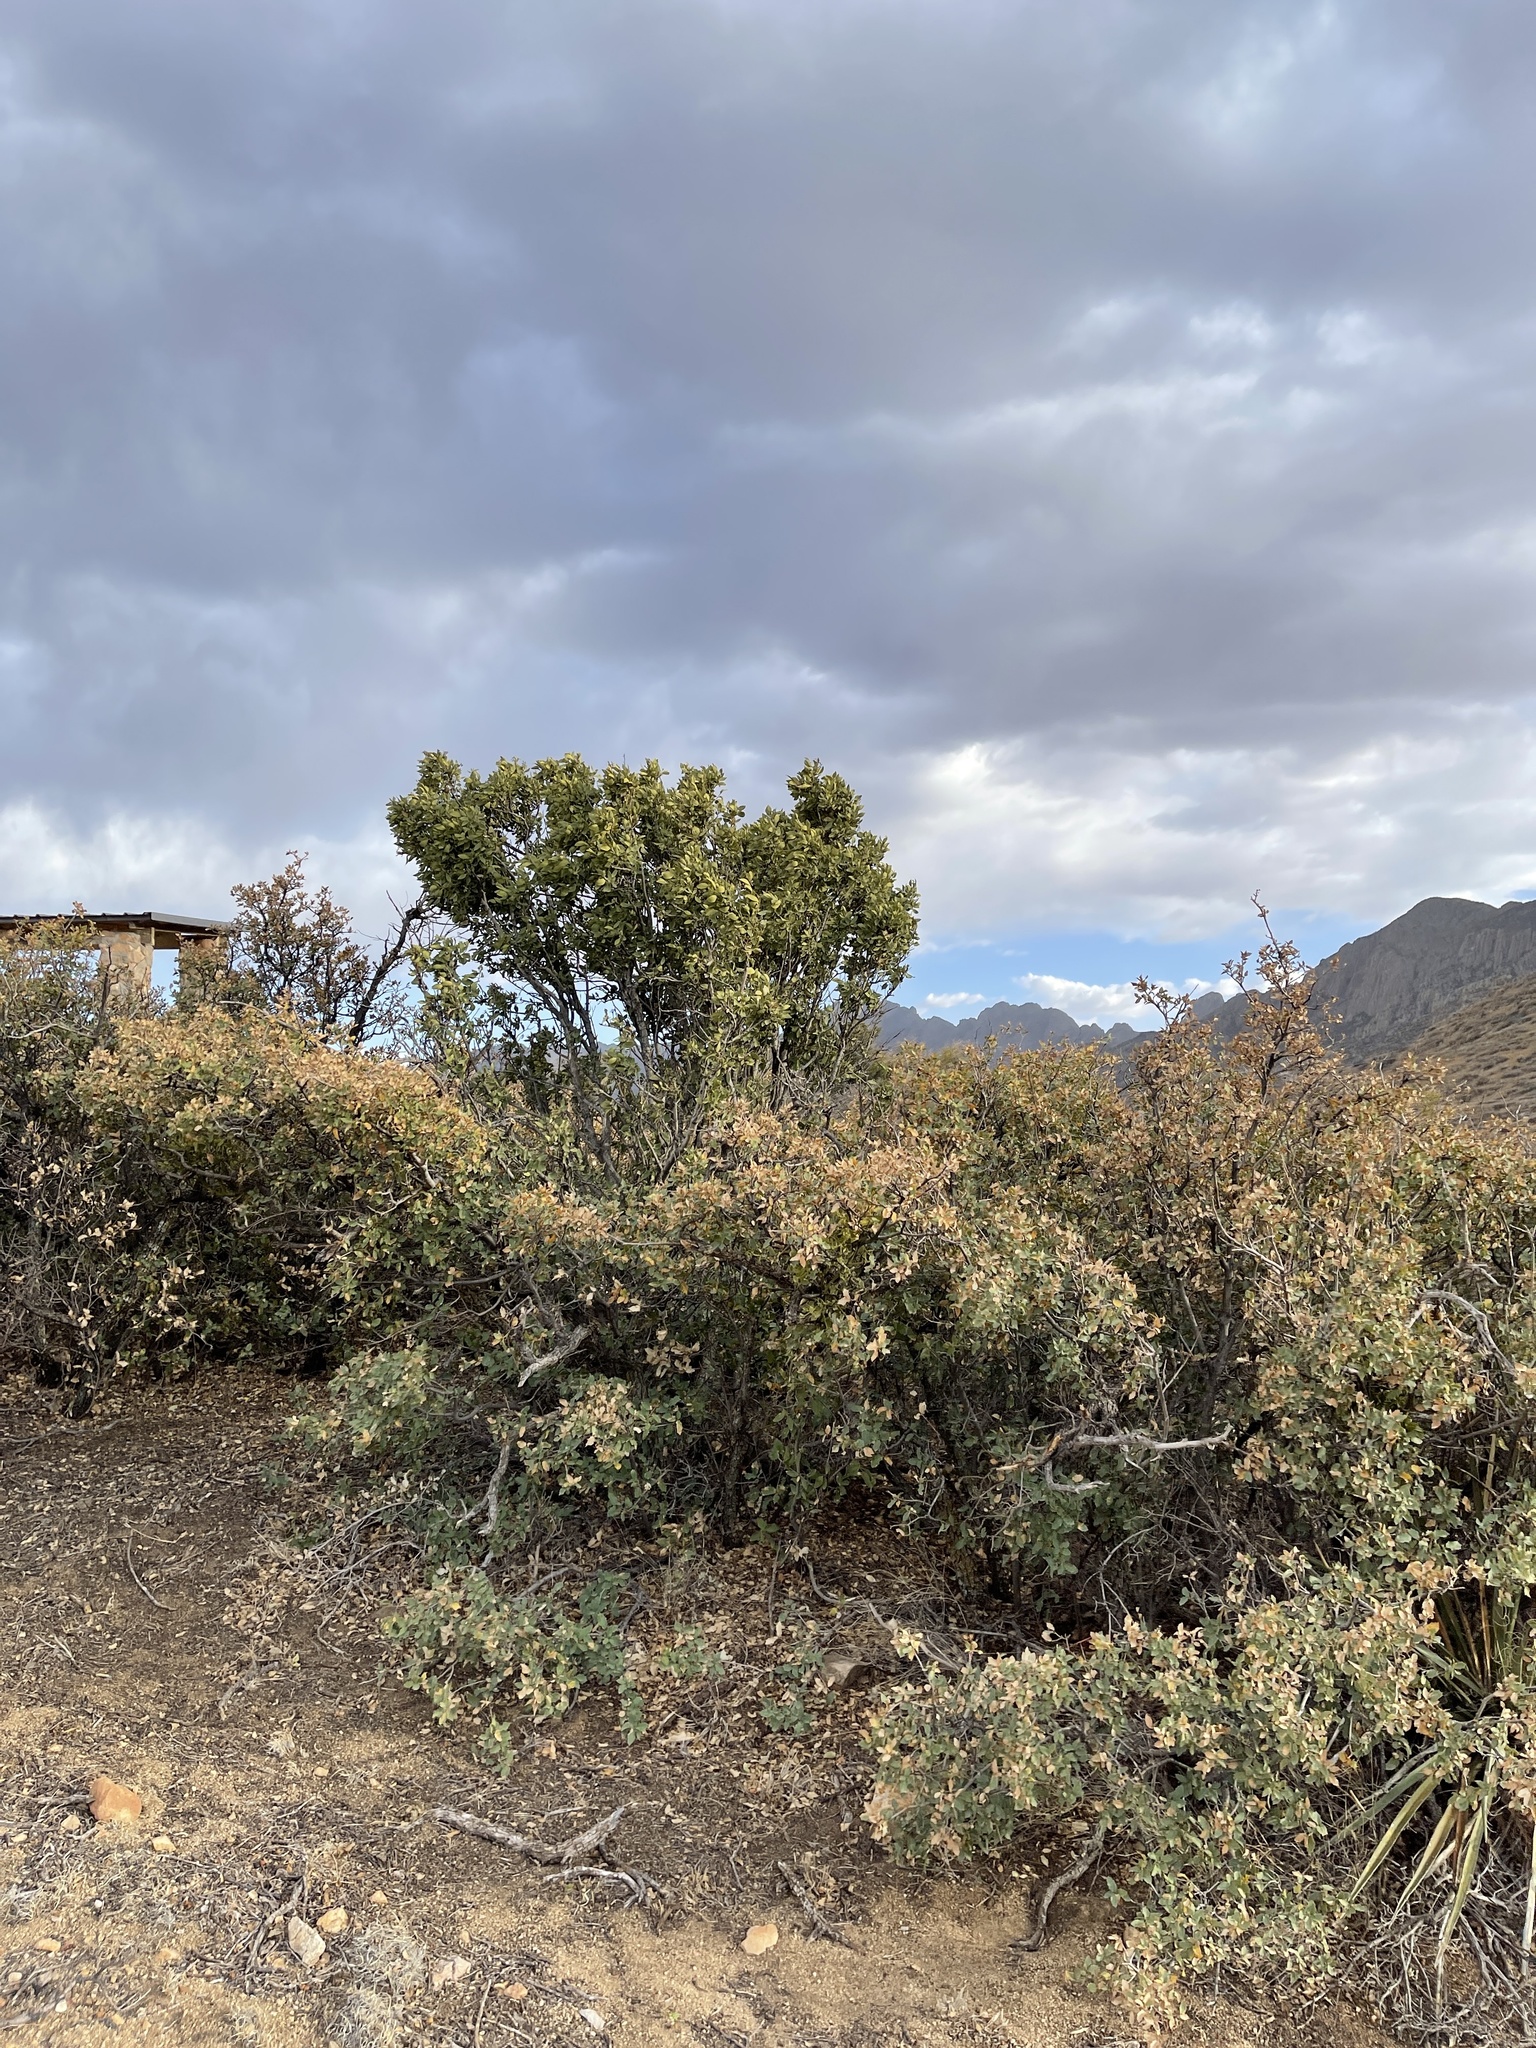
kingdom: Plantae
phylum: Tracheophyta
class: Magnoliopsida
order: Garryales
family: Garryaceae
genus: Garrya
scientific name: Garrya wrightii
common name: Wright's silktassel
